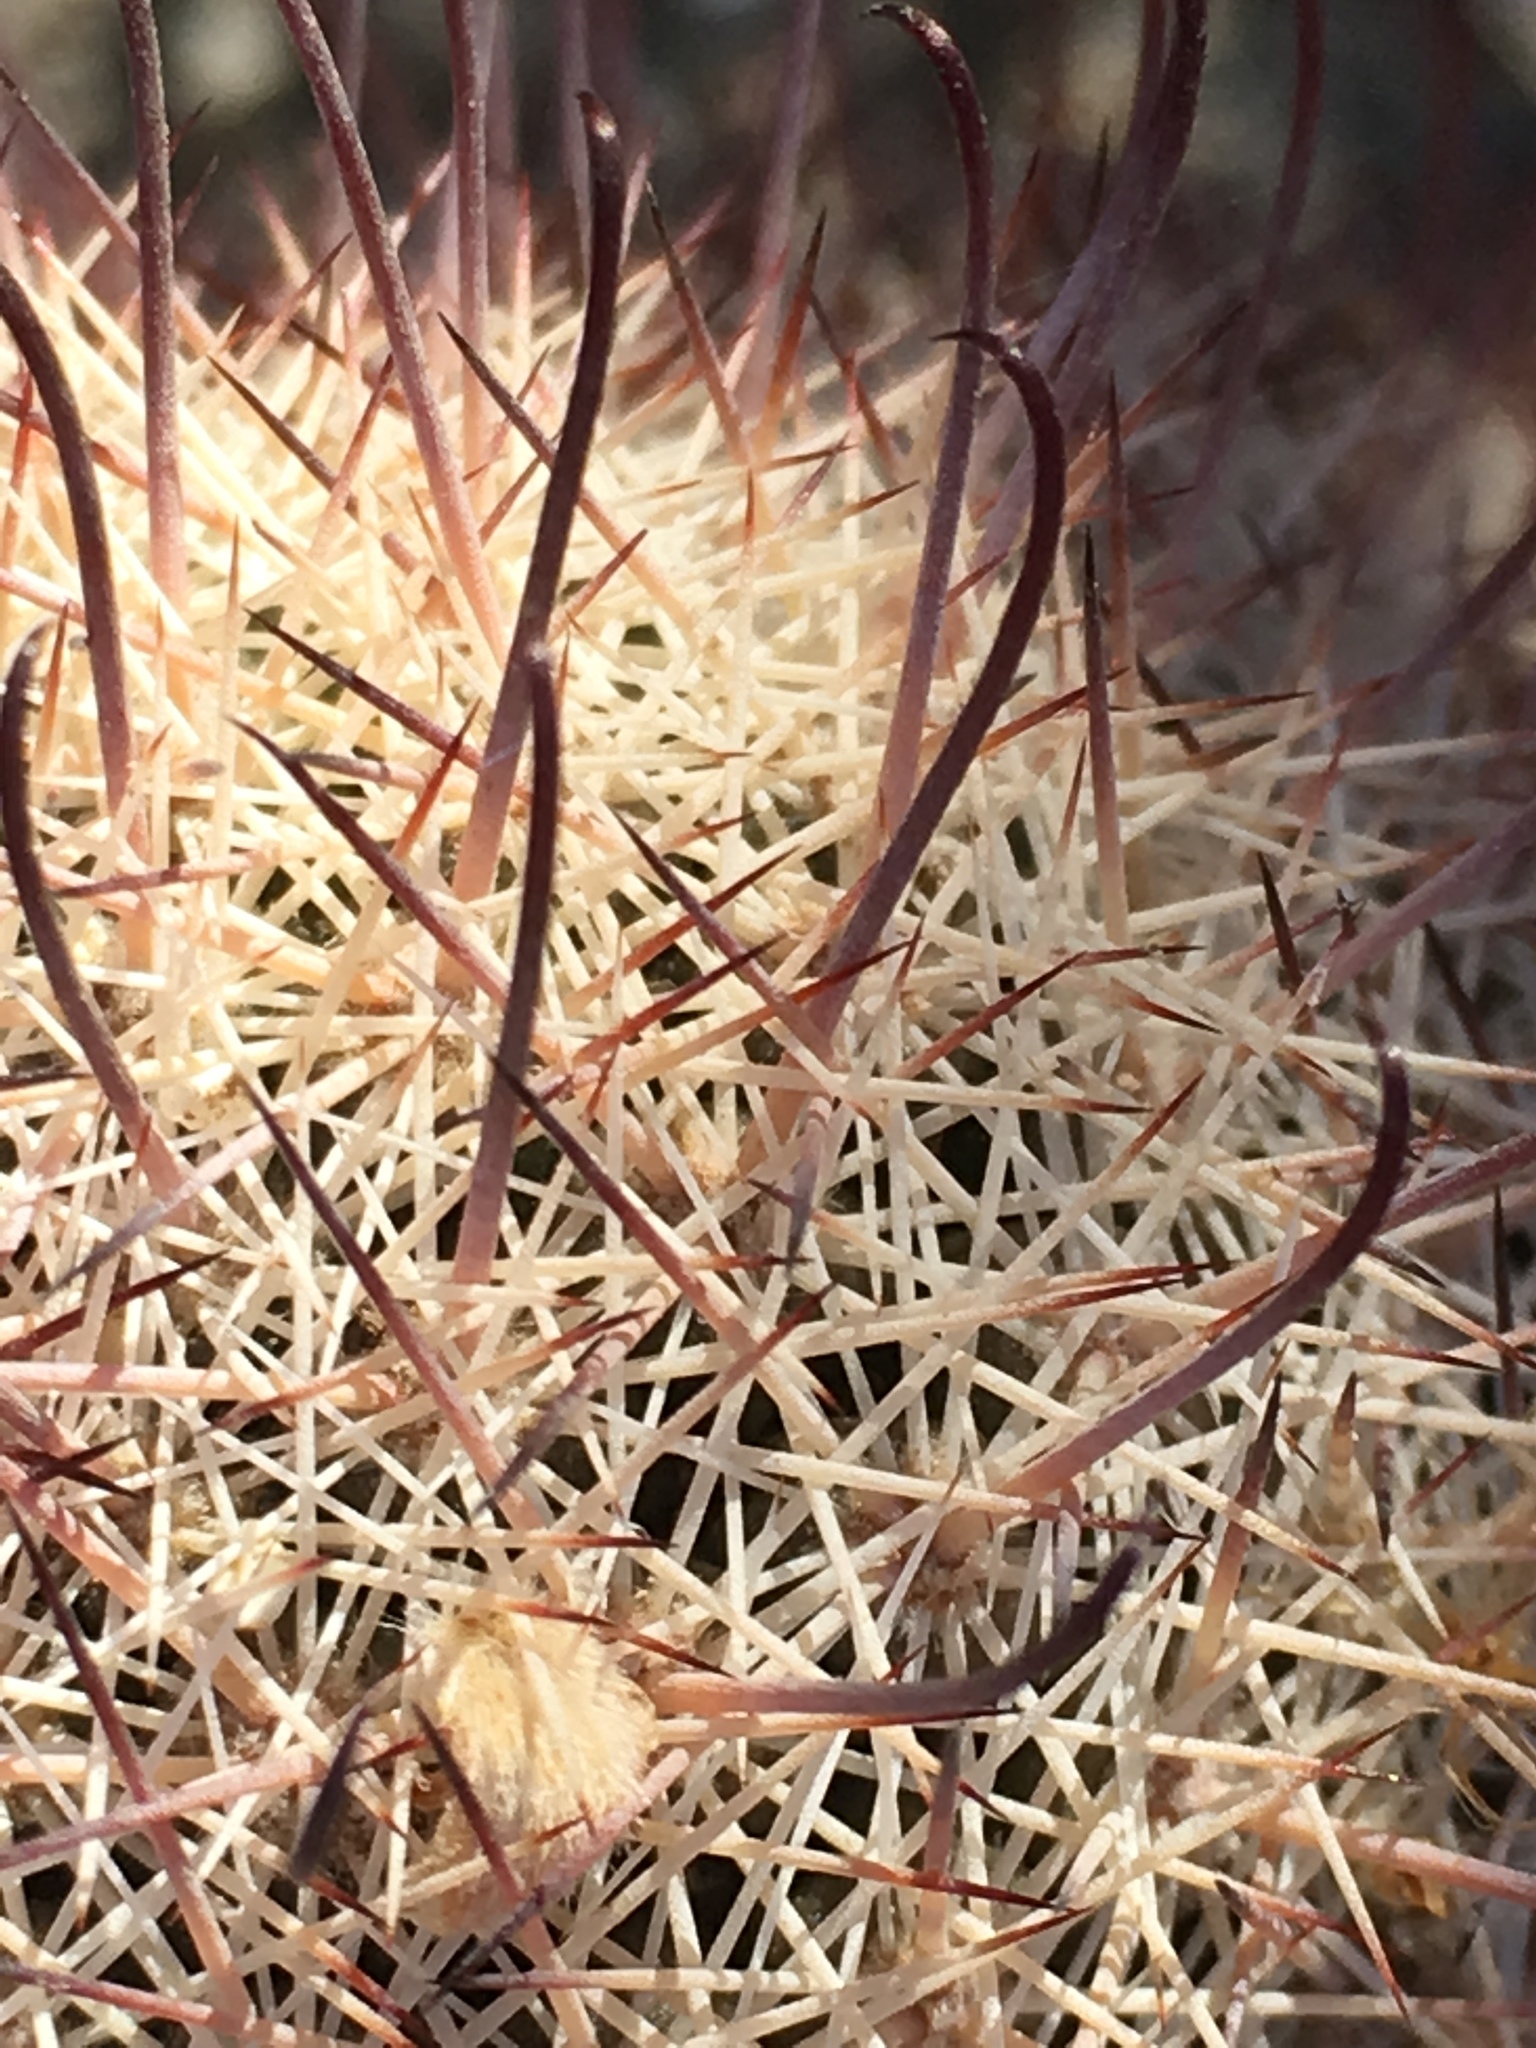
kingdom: Plantae
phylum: Tracheophyta
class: Magnoliopsida
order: Caryophyllales
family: Cactaceae
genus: Cochemiea
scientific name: Cochemiea dioica
